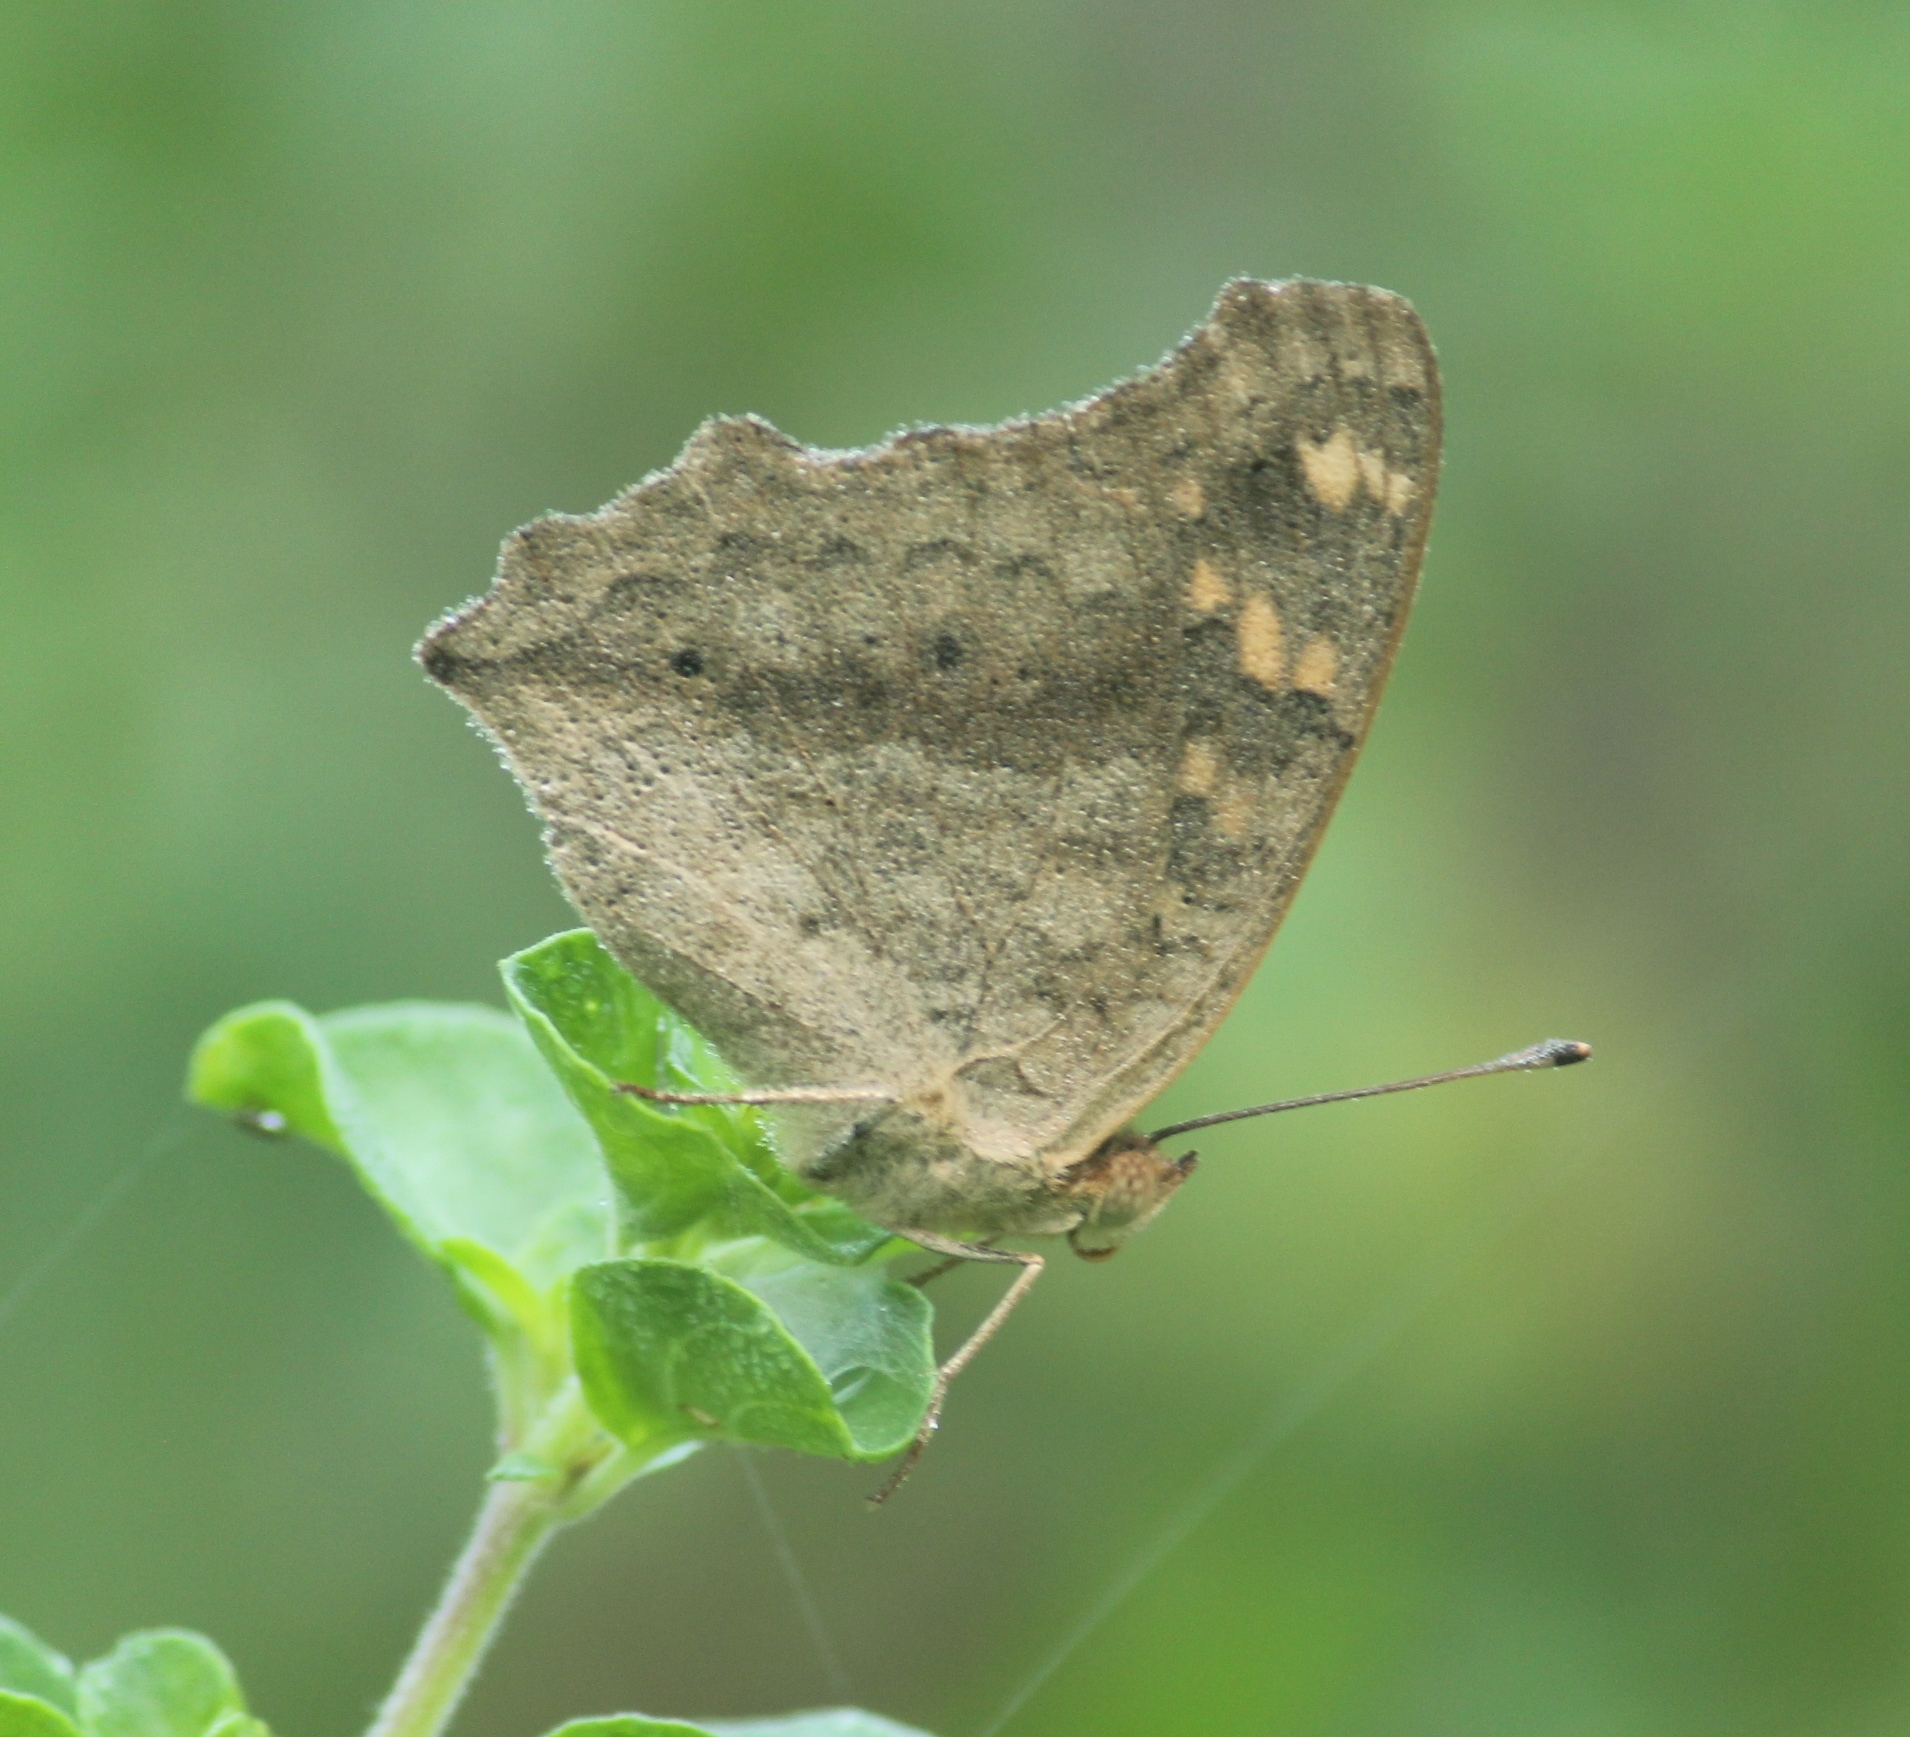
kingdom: Animalia
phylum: Arthropoda
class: Insecta
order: Lepidoptera
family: Nymphalidae
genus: Junonia
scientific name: Junonia lemonias
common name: Lemon pansy
